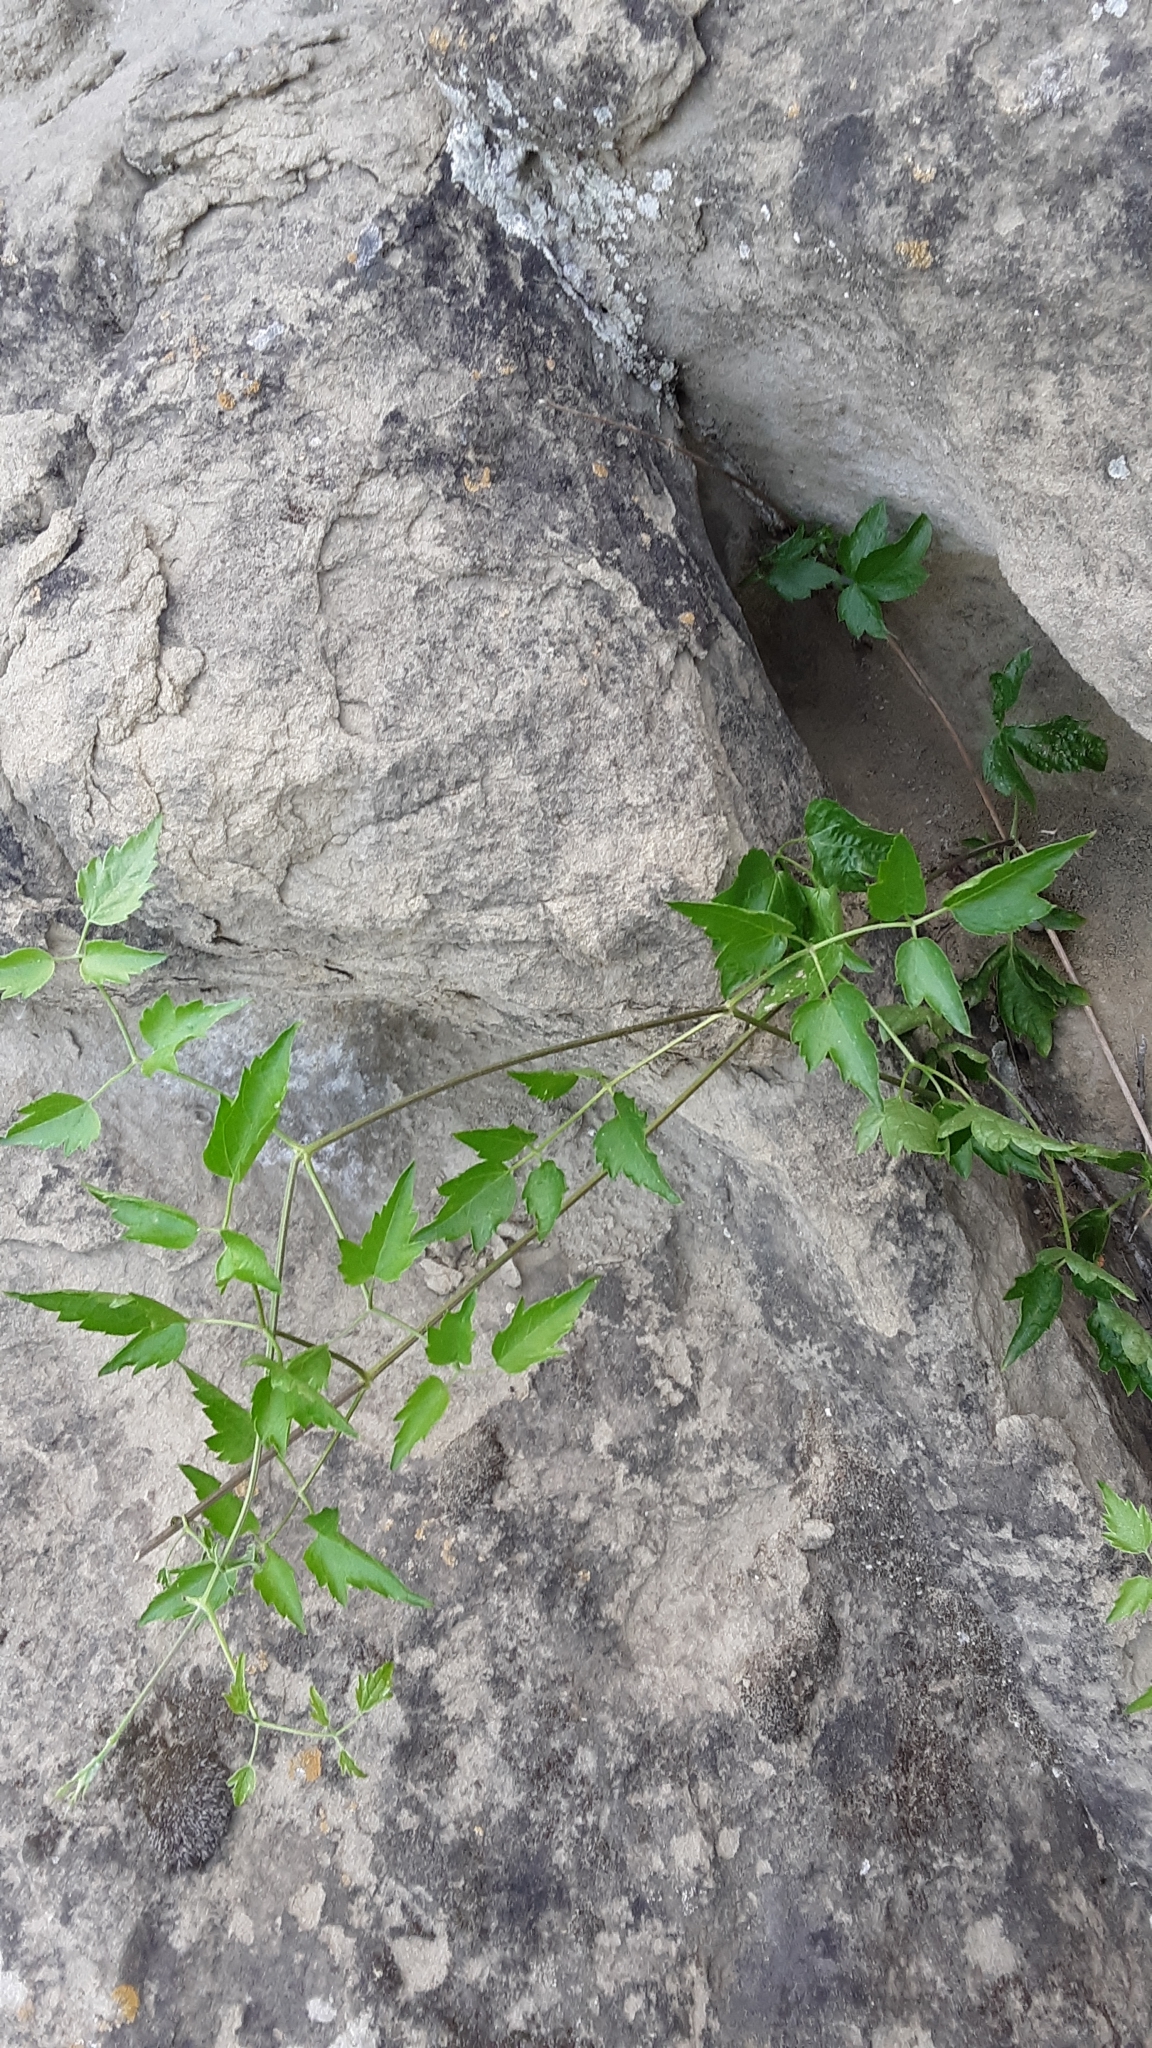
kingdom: Plantae
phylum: Tracheophyta
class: Magnoliopsida
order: Ranunculales
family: Ranunculaceae
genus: Clematis
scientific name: Clematis ligusticifolia
